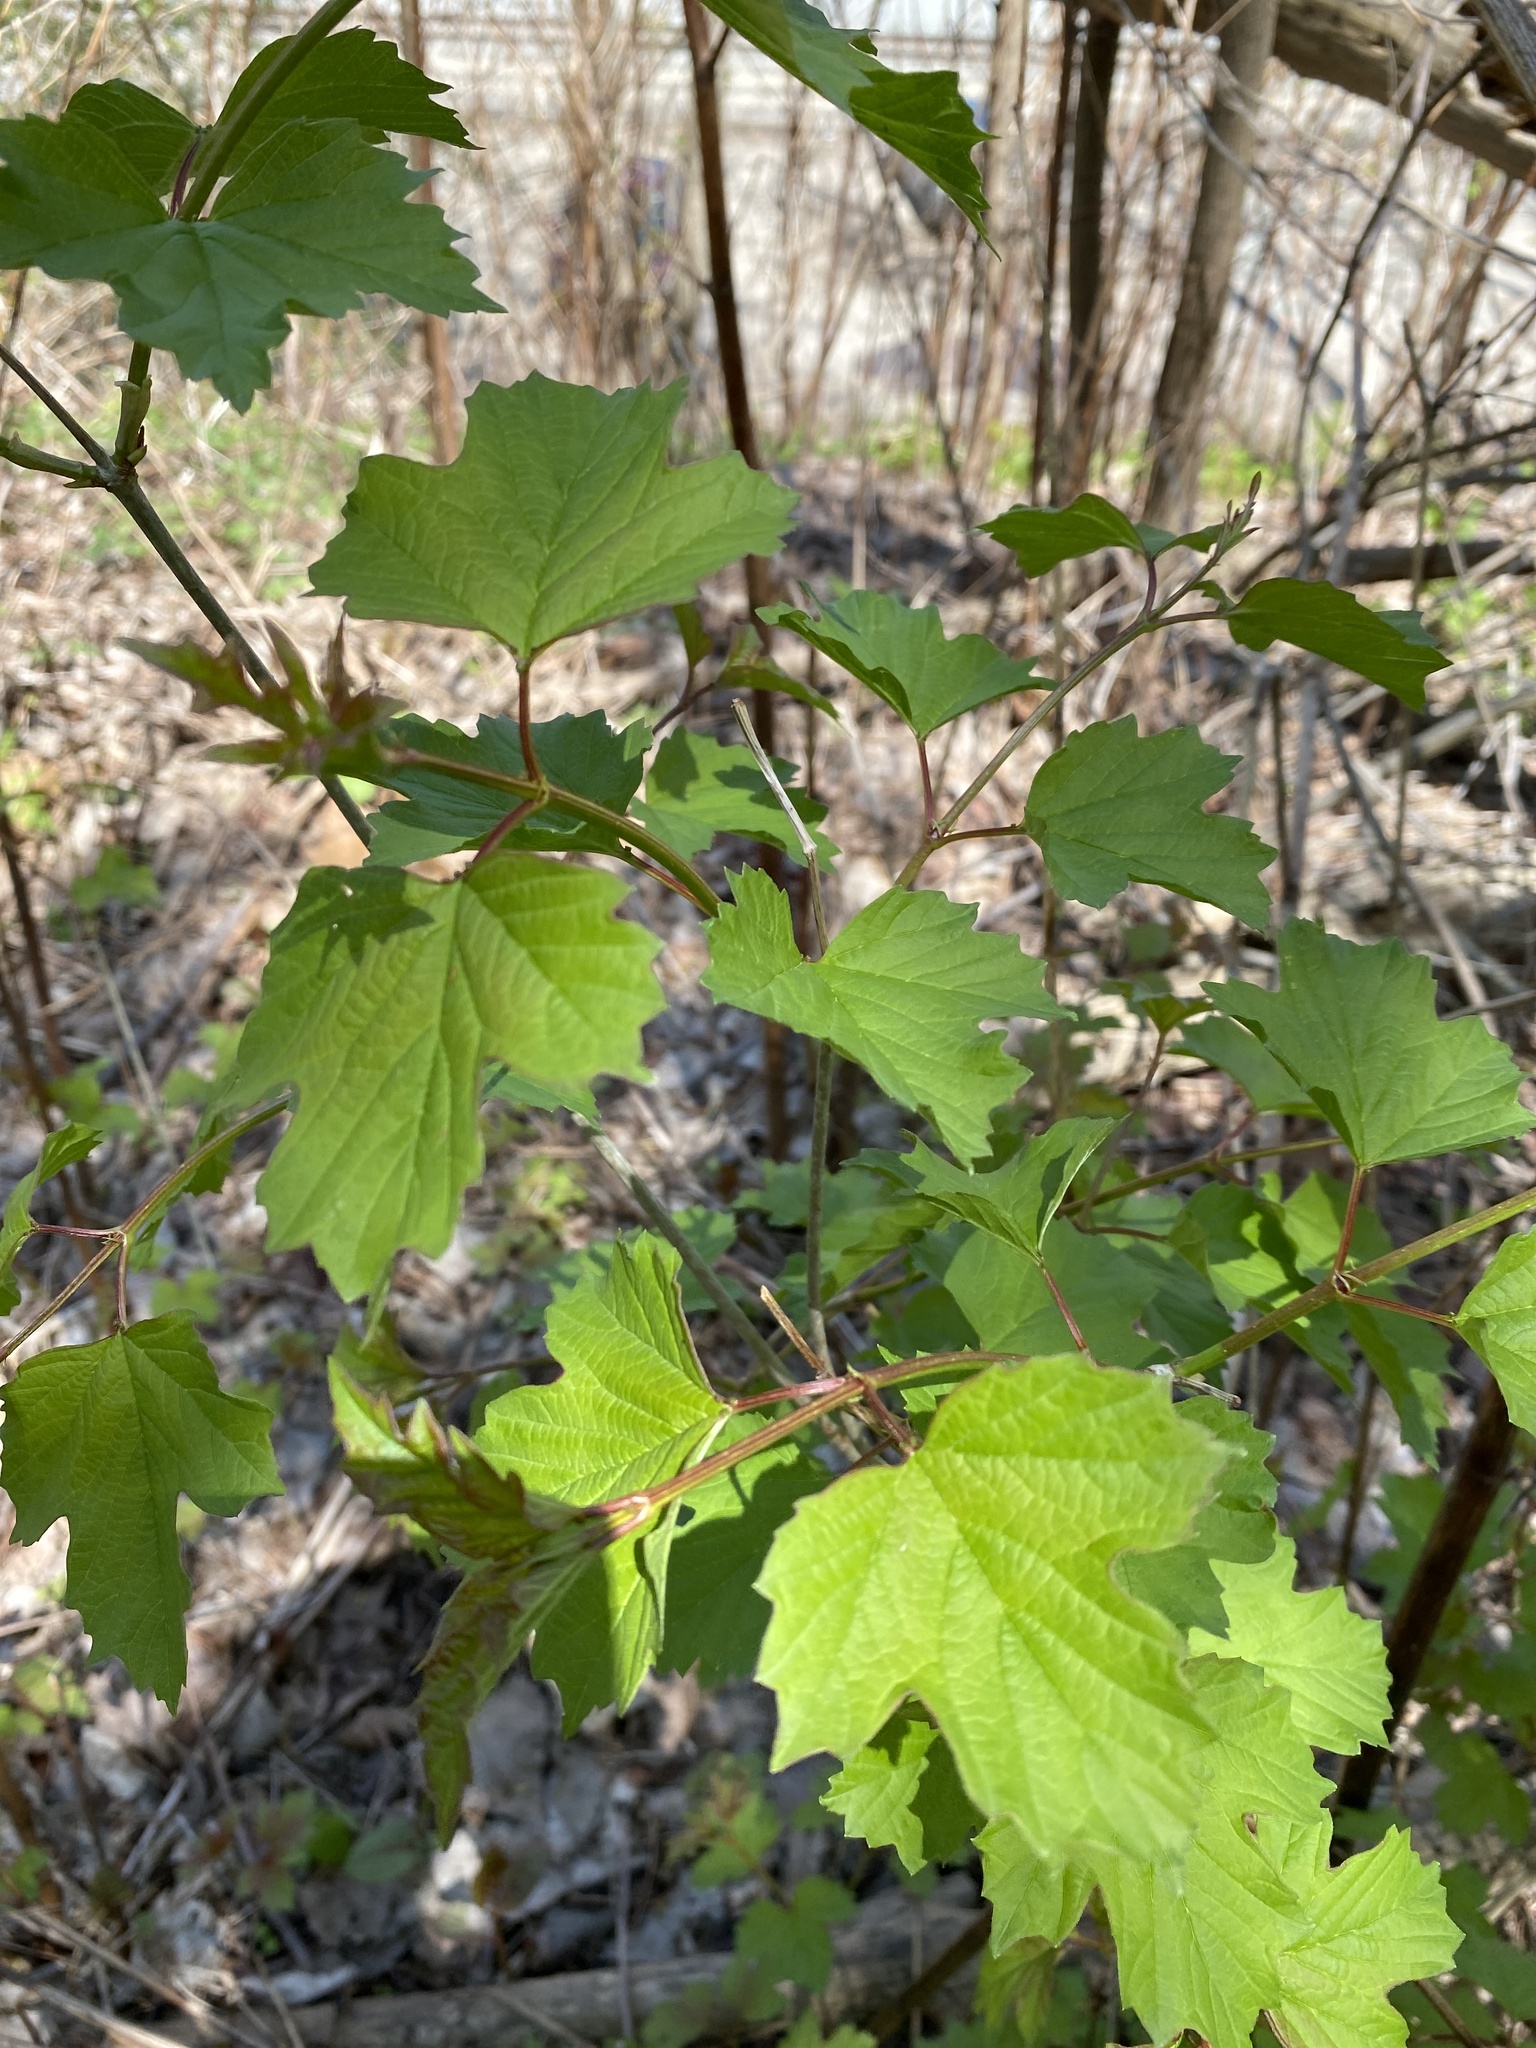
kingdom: Plantae
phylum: Tracheophyta
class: Magnoliopsida
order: Dipsacales
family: Viburnaceae
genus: Viburnum
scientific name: Viburnum opulus
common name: Guelder-rose
